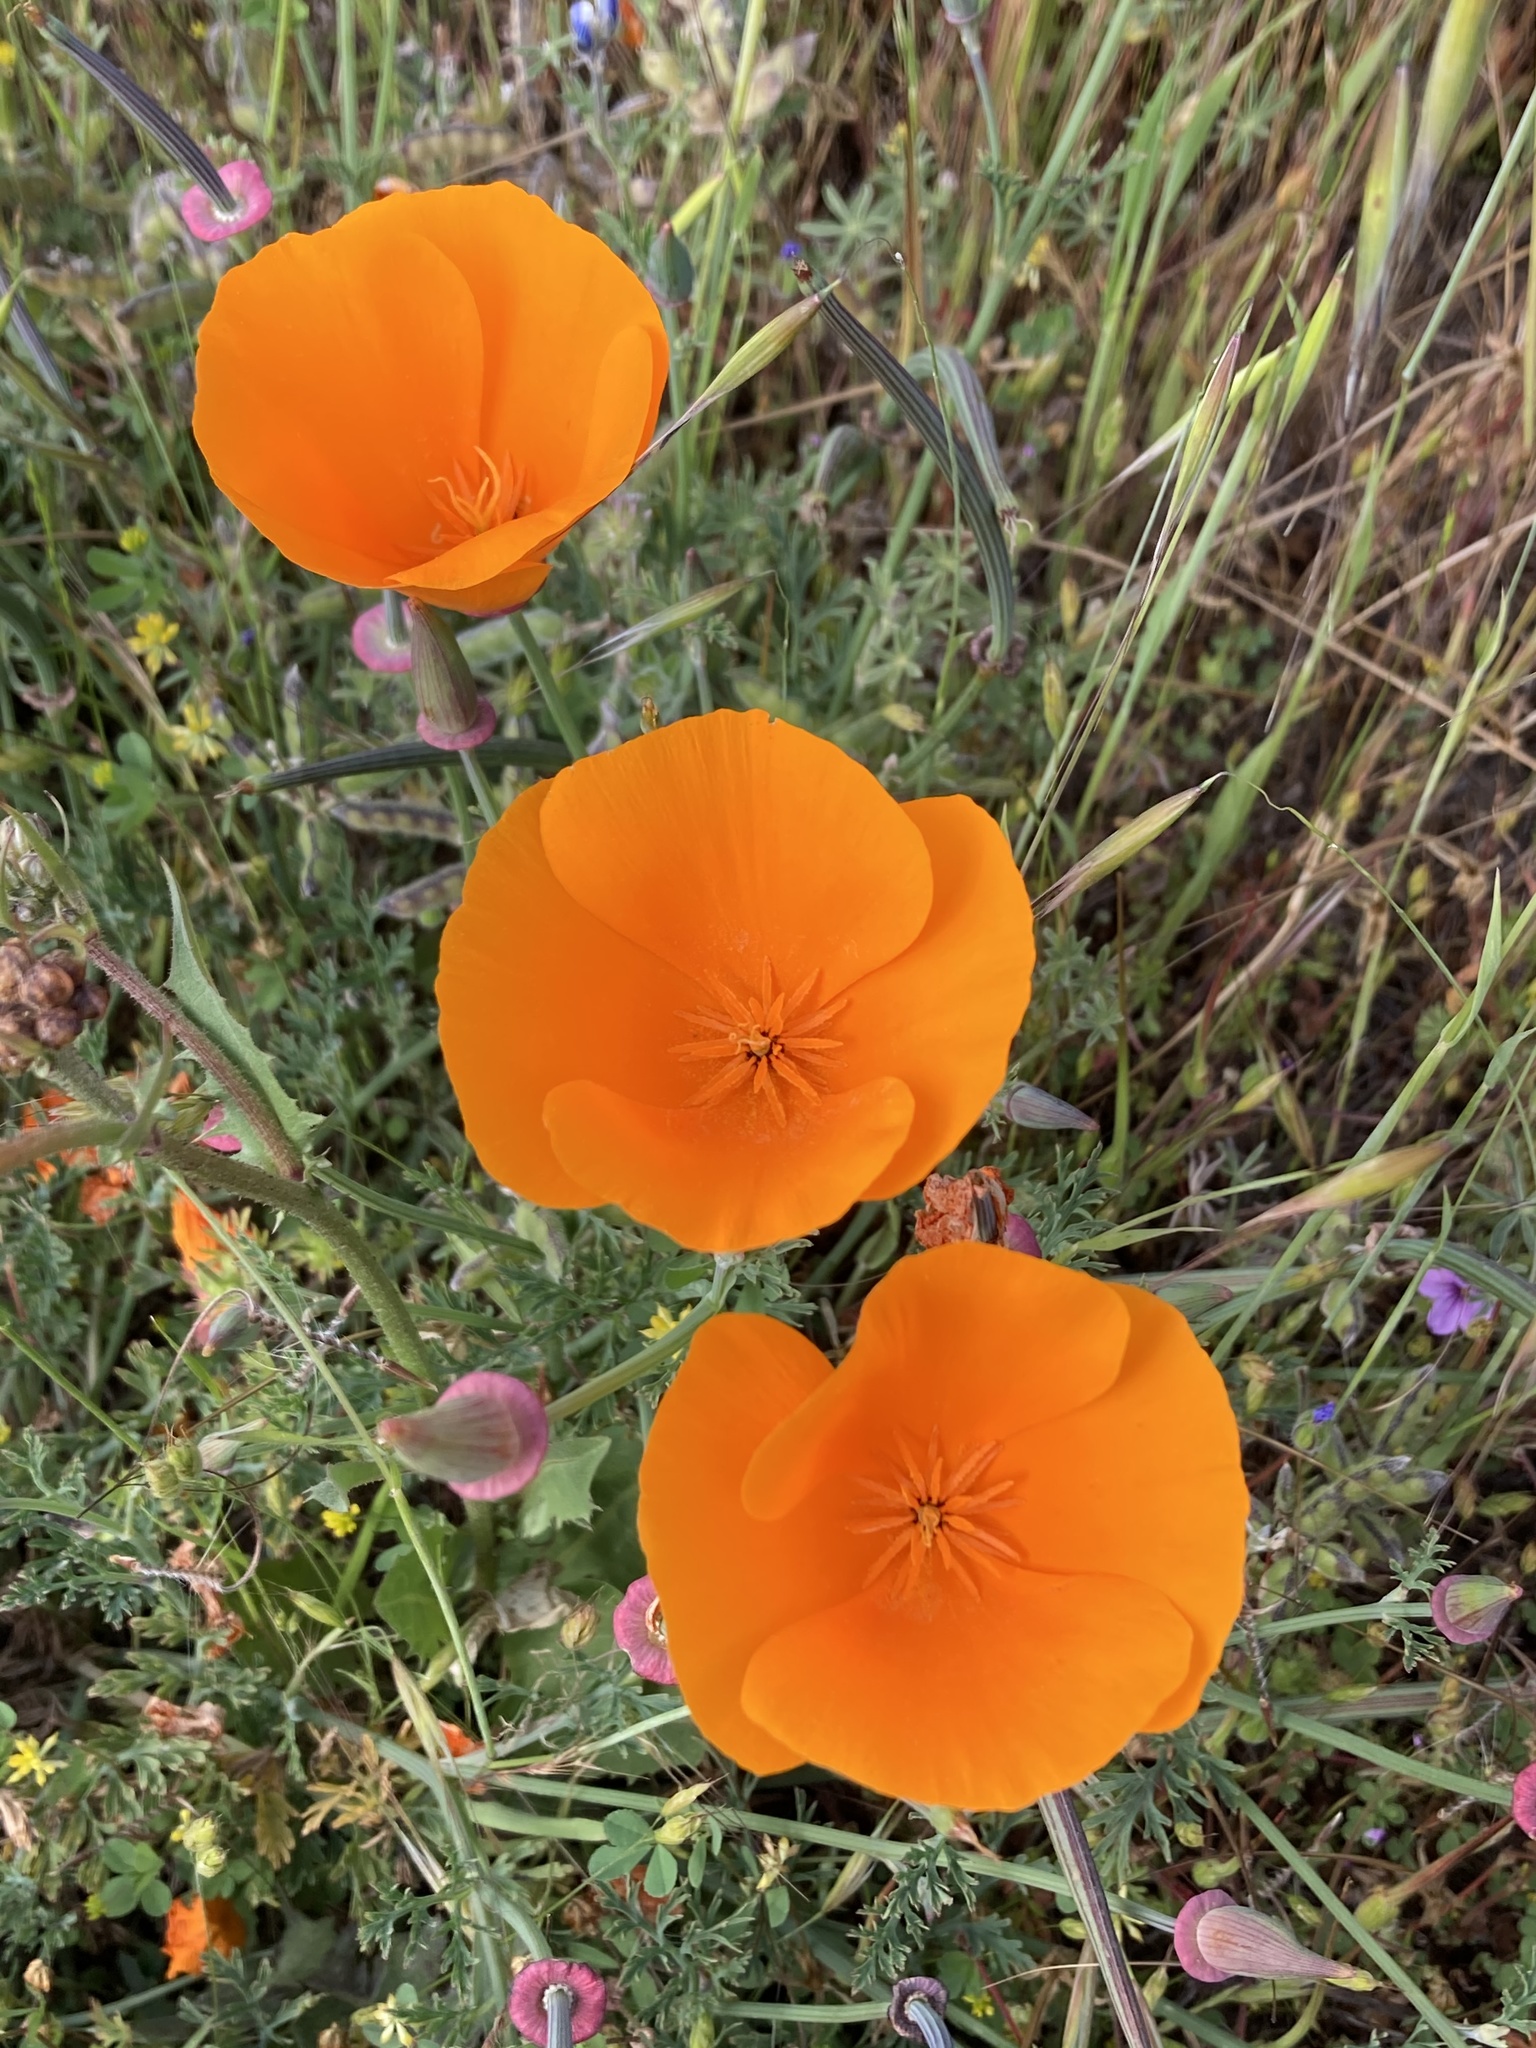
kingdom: Plantae
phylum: Tracheophyta
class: Magnoliopsida
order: Ranunculales
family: Papaveraceae
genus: Eschscholzia
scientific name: Eschscholzia californica
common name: California poppy
